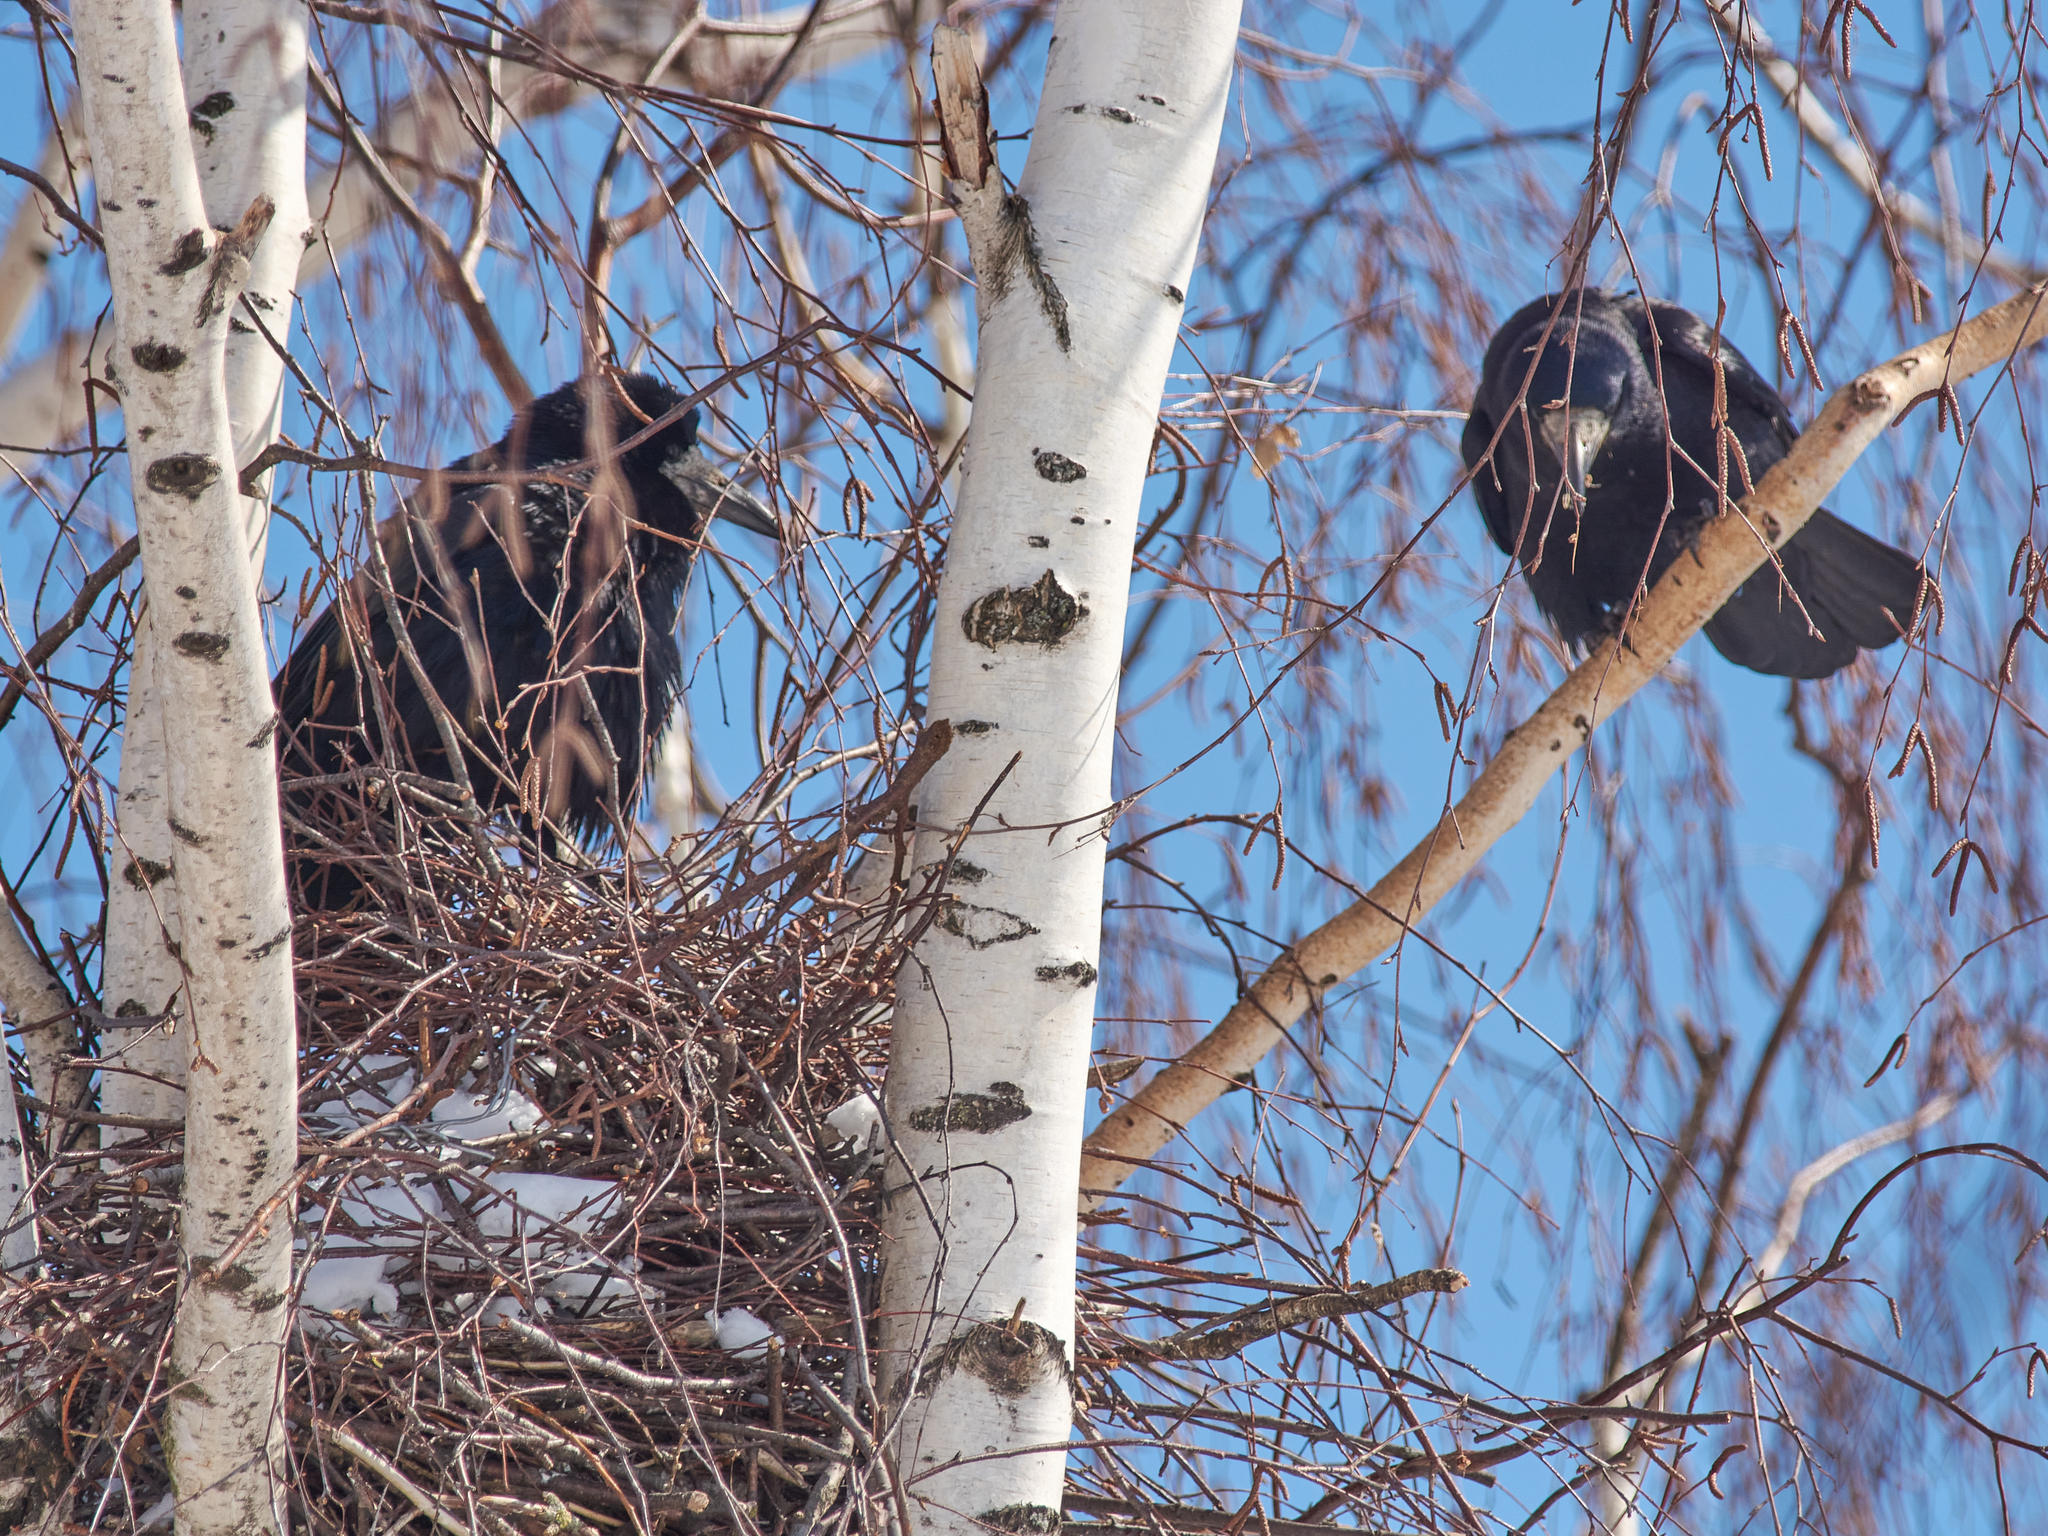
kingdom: Animalia
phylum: Chordata
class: Aves
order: Passeriformes
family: Corvidae
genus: Corvus
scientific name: Corvus frugilegus
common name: Rook
